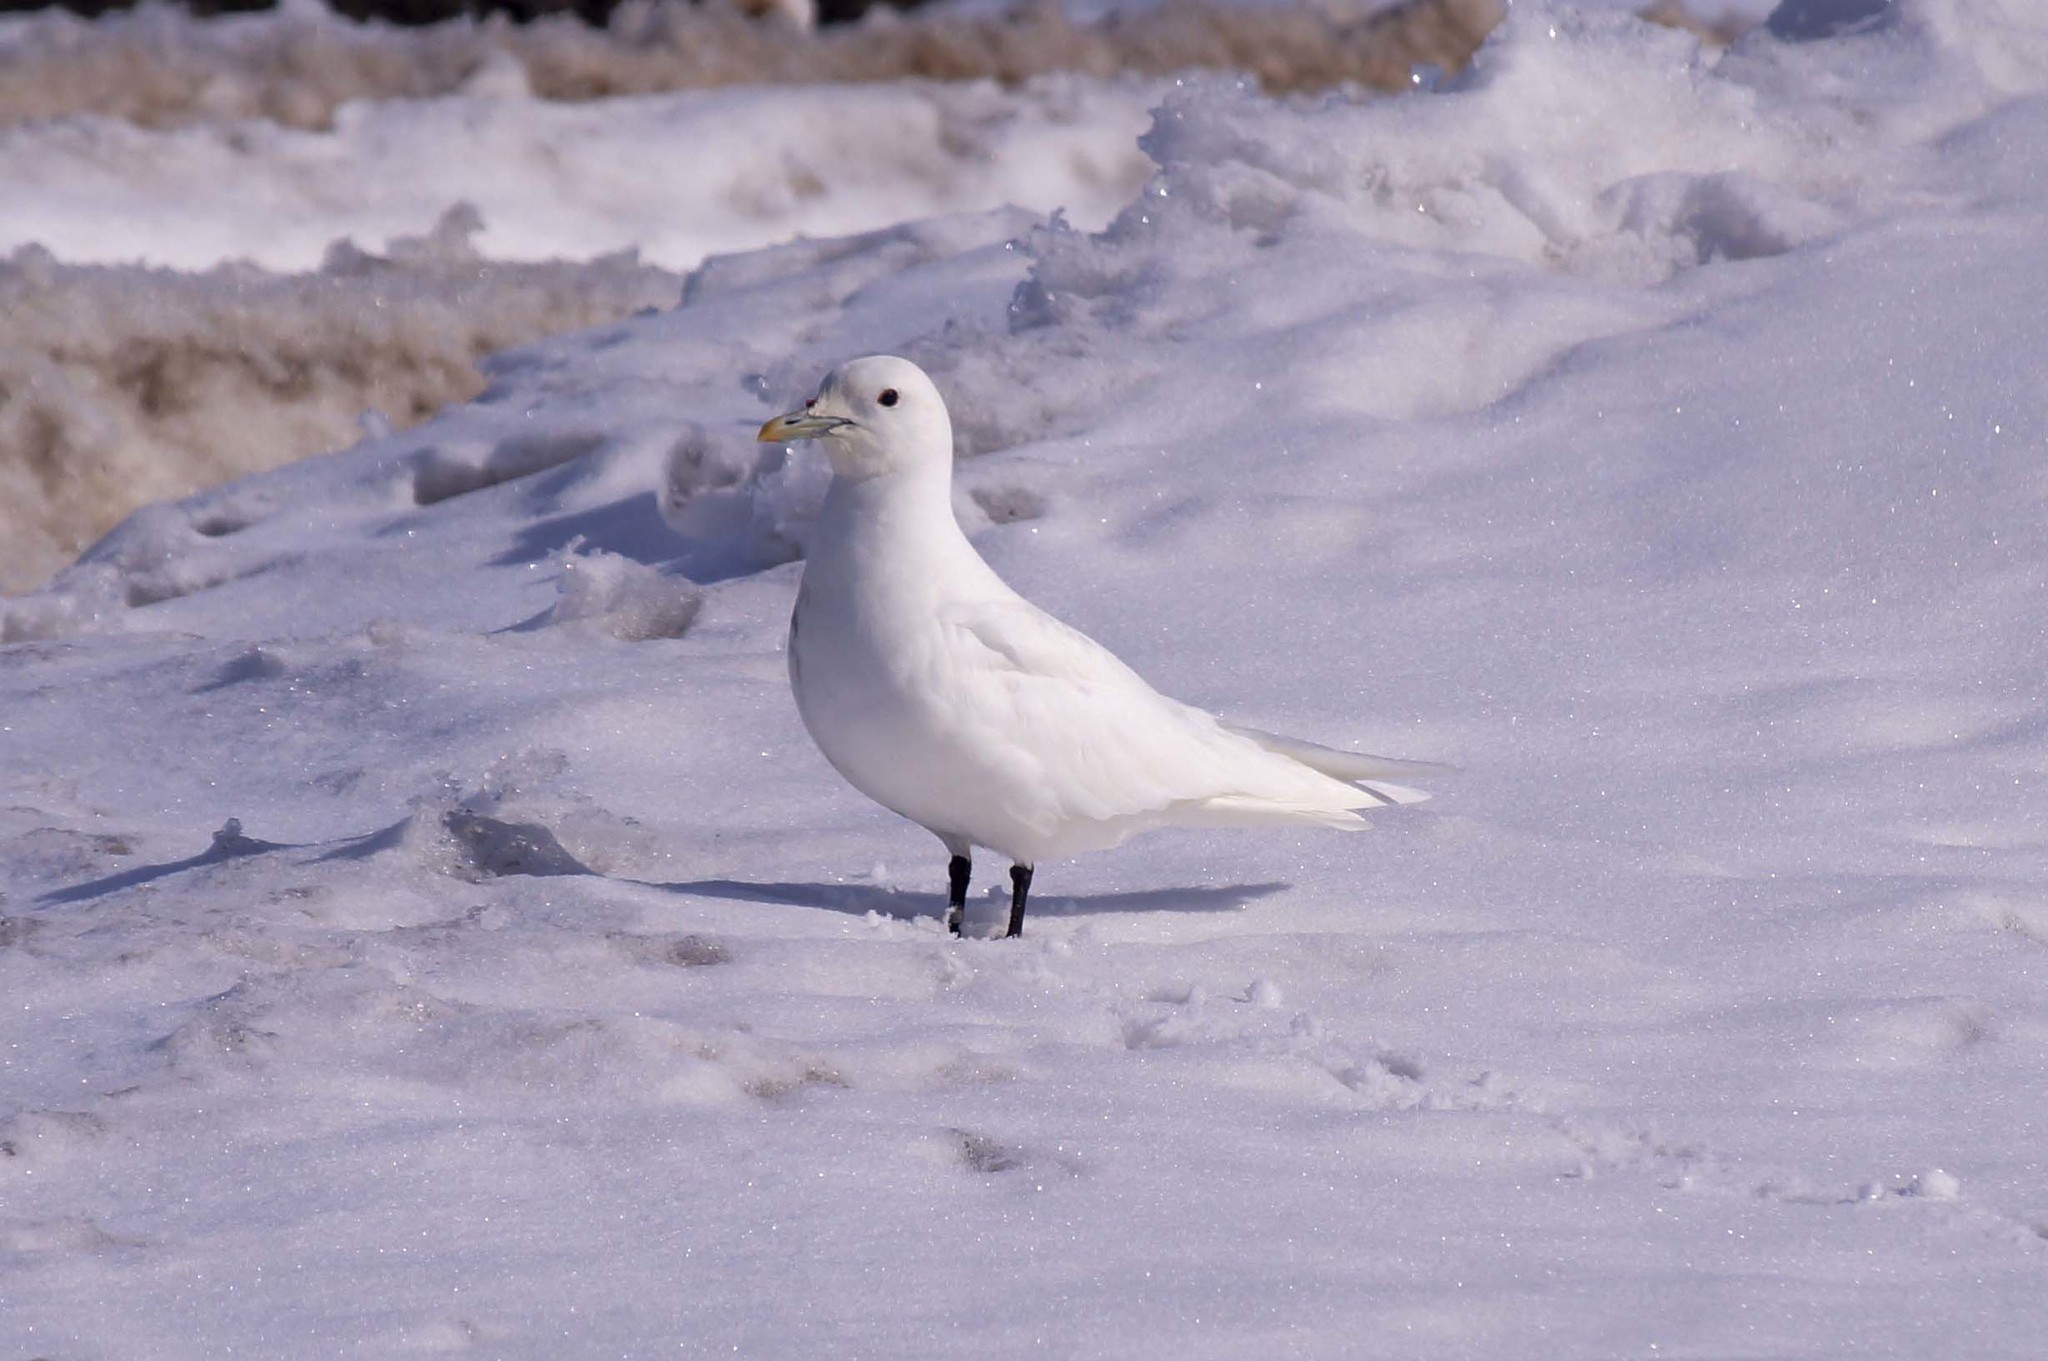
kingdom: Animalia
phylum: Chordata
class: Aves
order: Charadriiformes
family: Laridae
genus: Pagophila
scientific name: Pagophila eburnea
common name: Ivory gull
